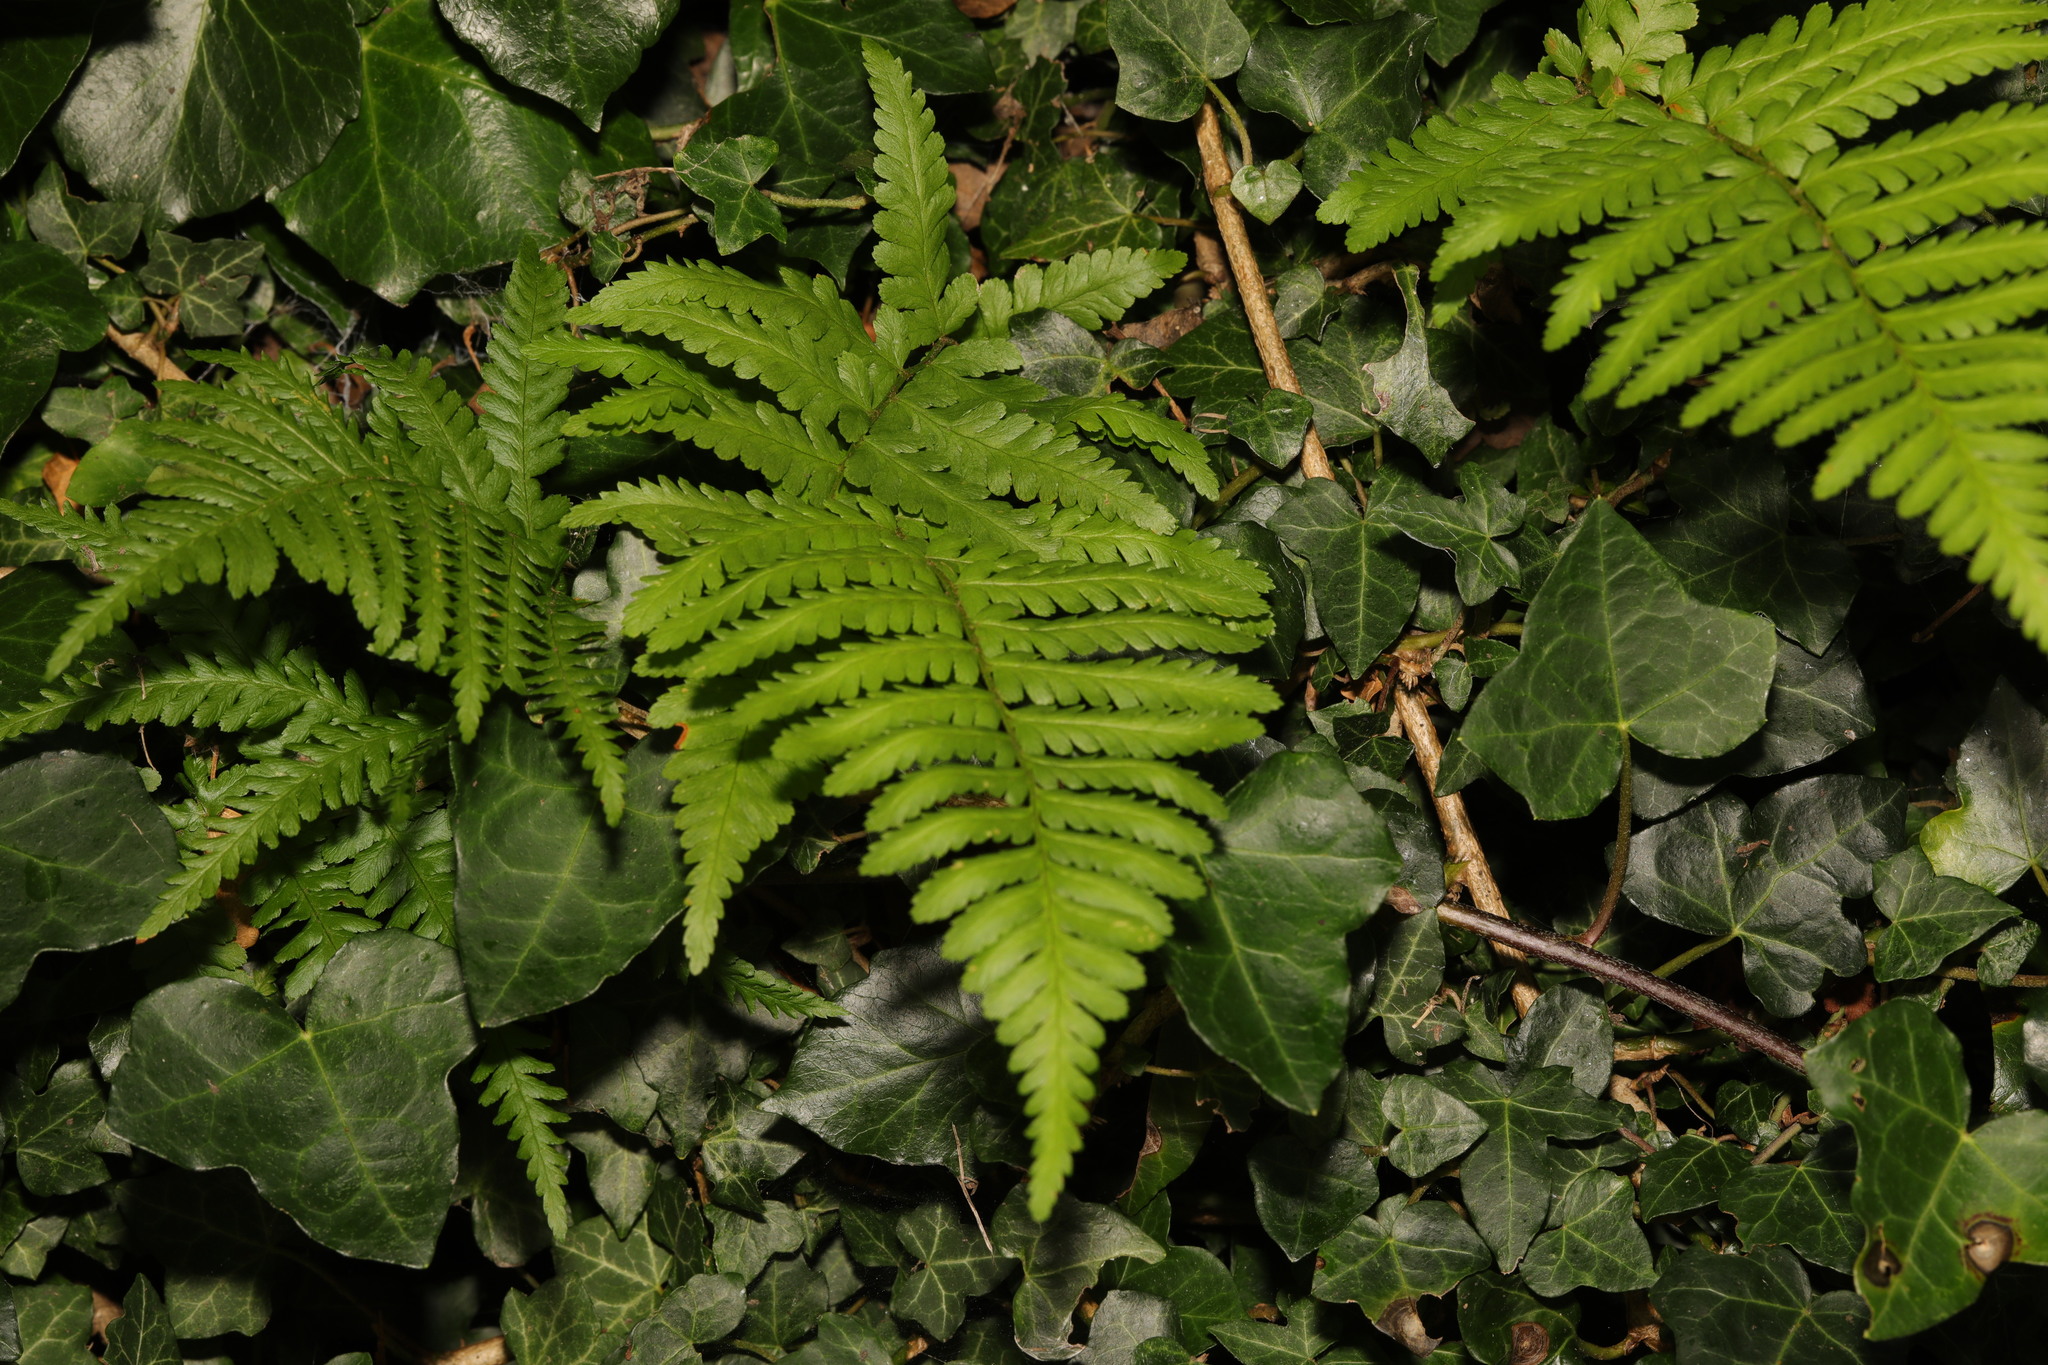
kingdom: Plantae
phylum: Tracheophyta
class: Polypodiopsida
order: Polypodiales
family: Dryopteridaceae
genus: Dryopteris
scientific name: Dryopteris filix-mas
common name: Male fern
